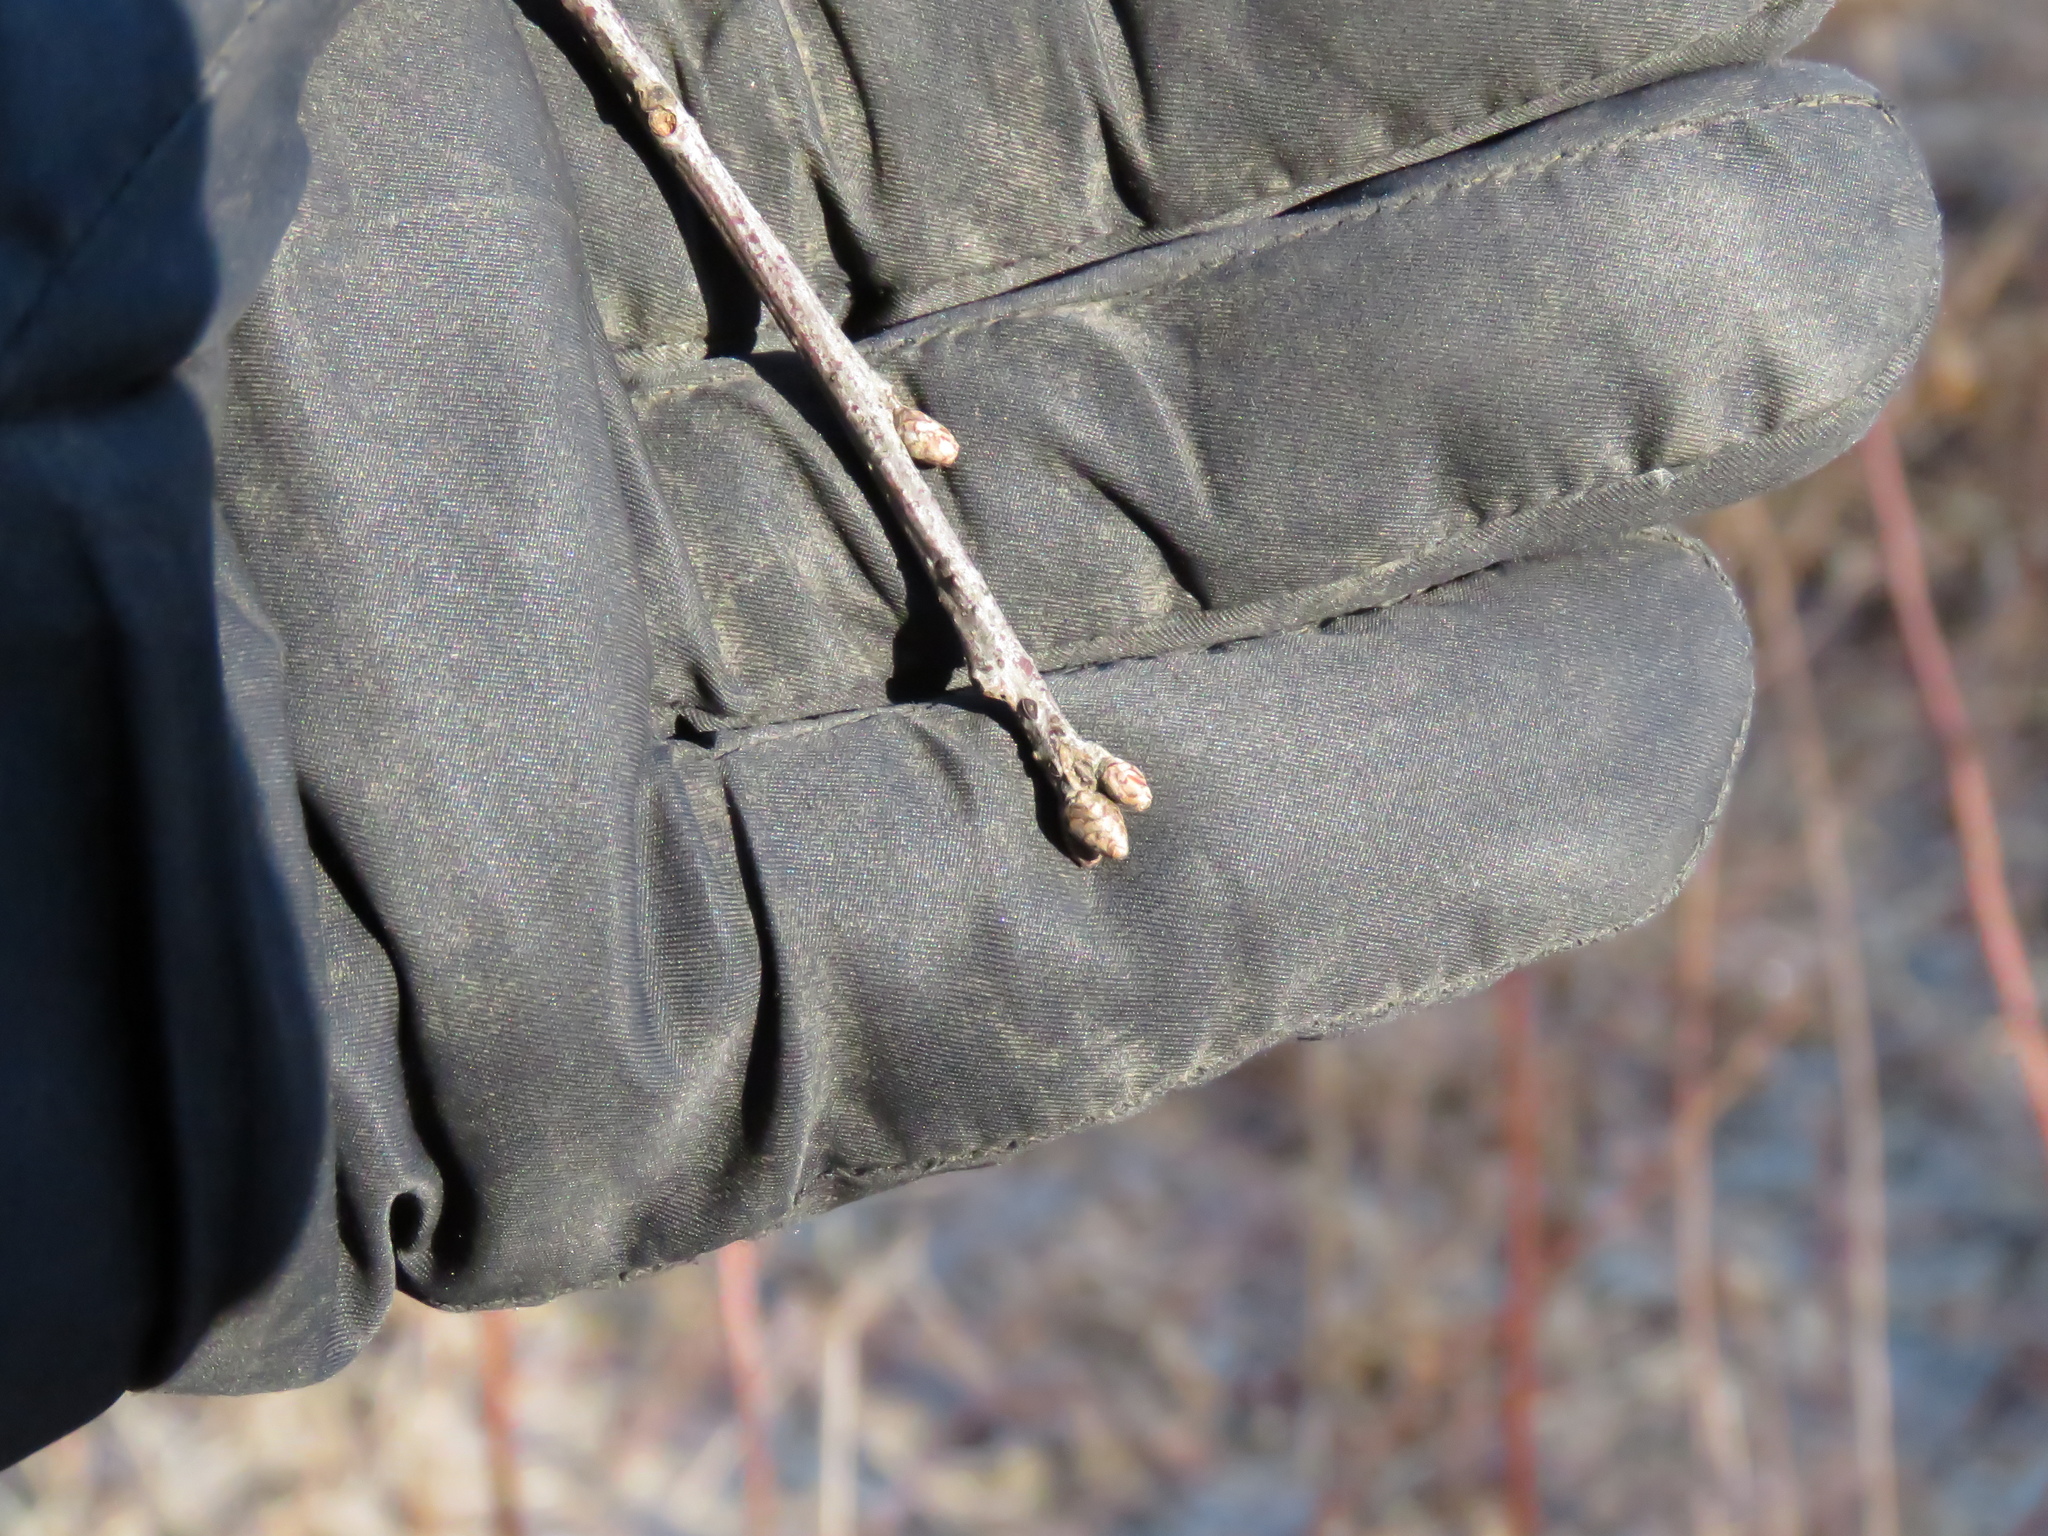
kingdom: Plantae
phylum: Tracheophyta
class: Magnoliopsida
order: Fagales
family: Fagaceae
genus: Quercus
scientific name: Quercus rubra
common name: Red oak
